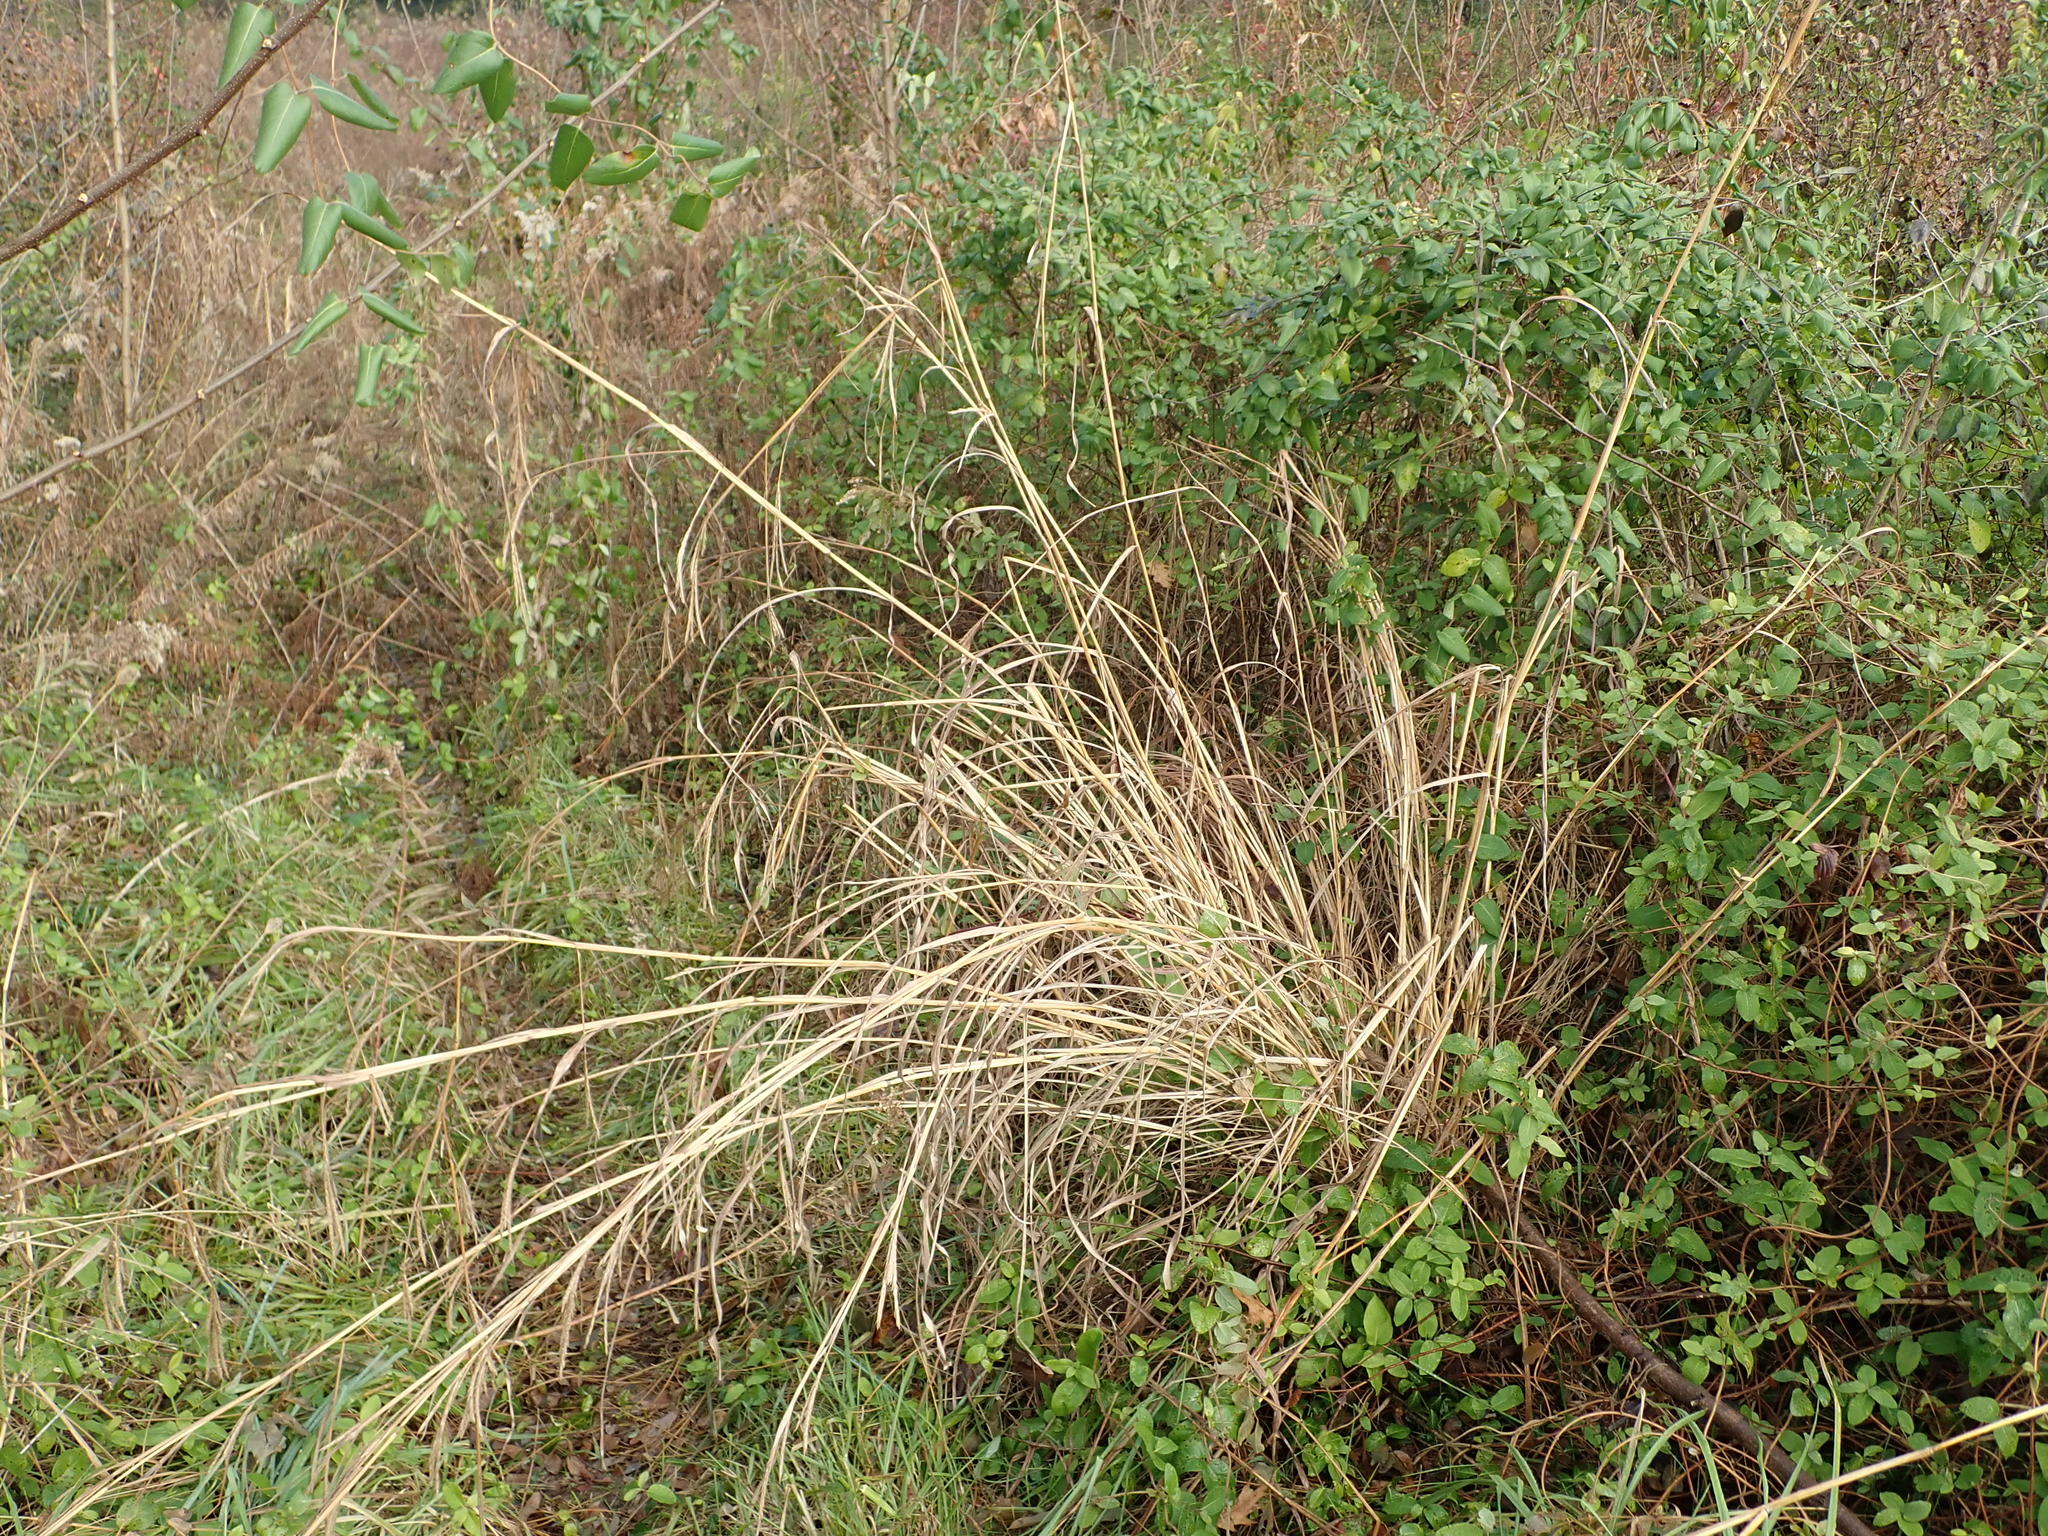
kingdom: Plantae
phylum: Tracheophyta
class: Liliopsida
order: Poales
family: Poaceae
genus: Andropogon
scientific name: Andropogon gerardi
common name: Big bluestem
